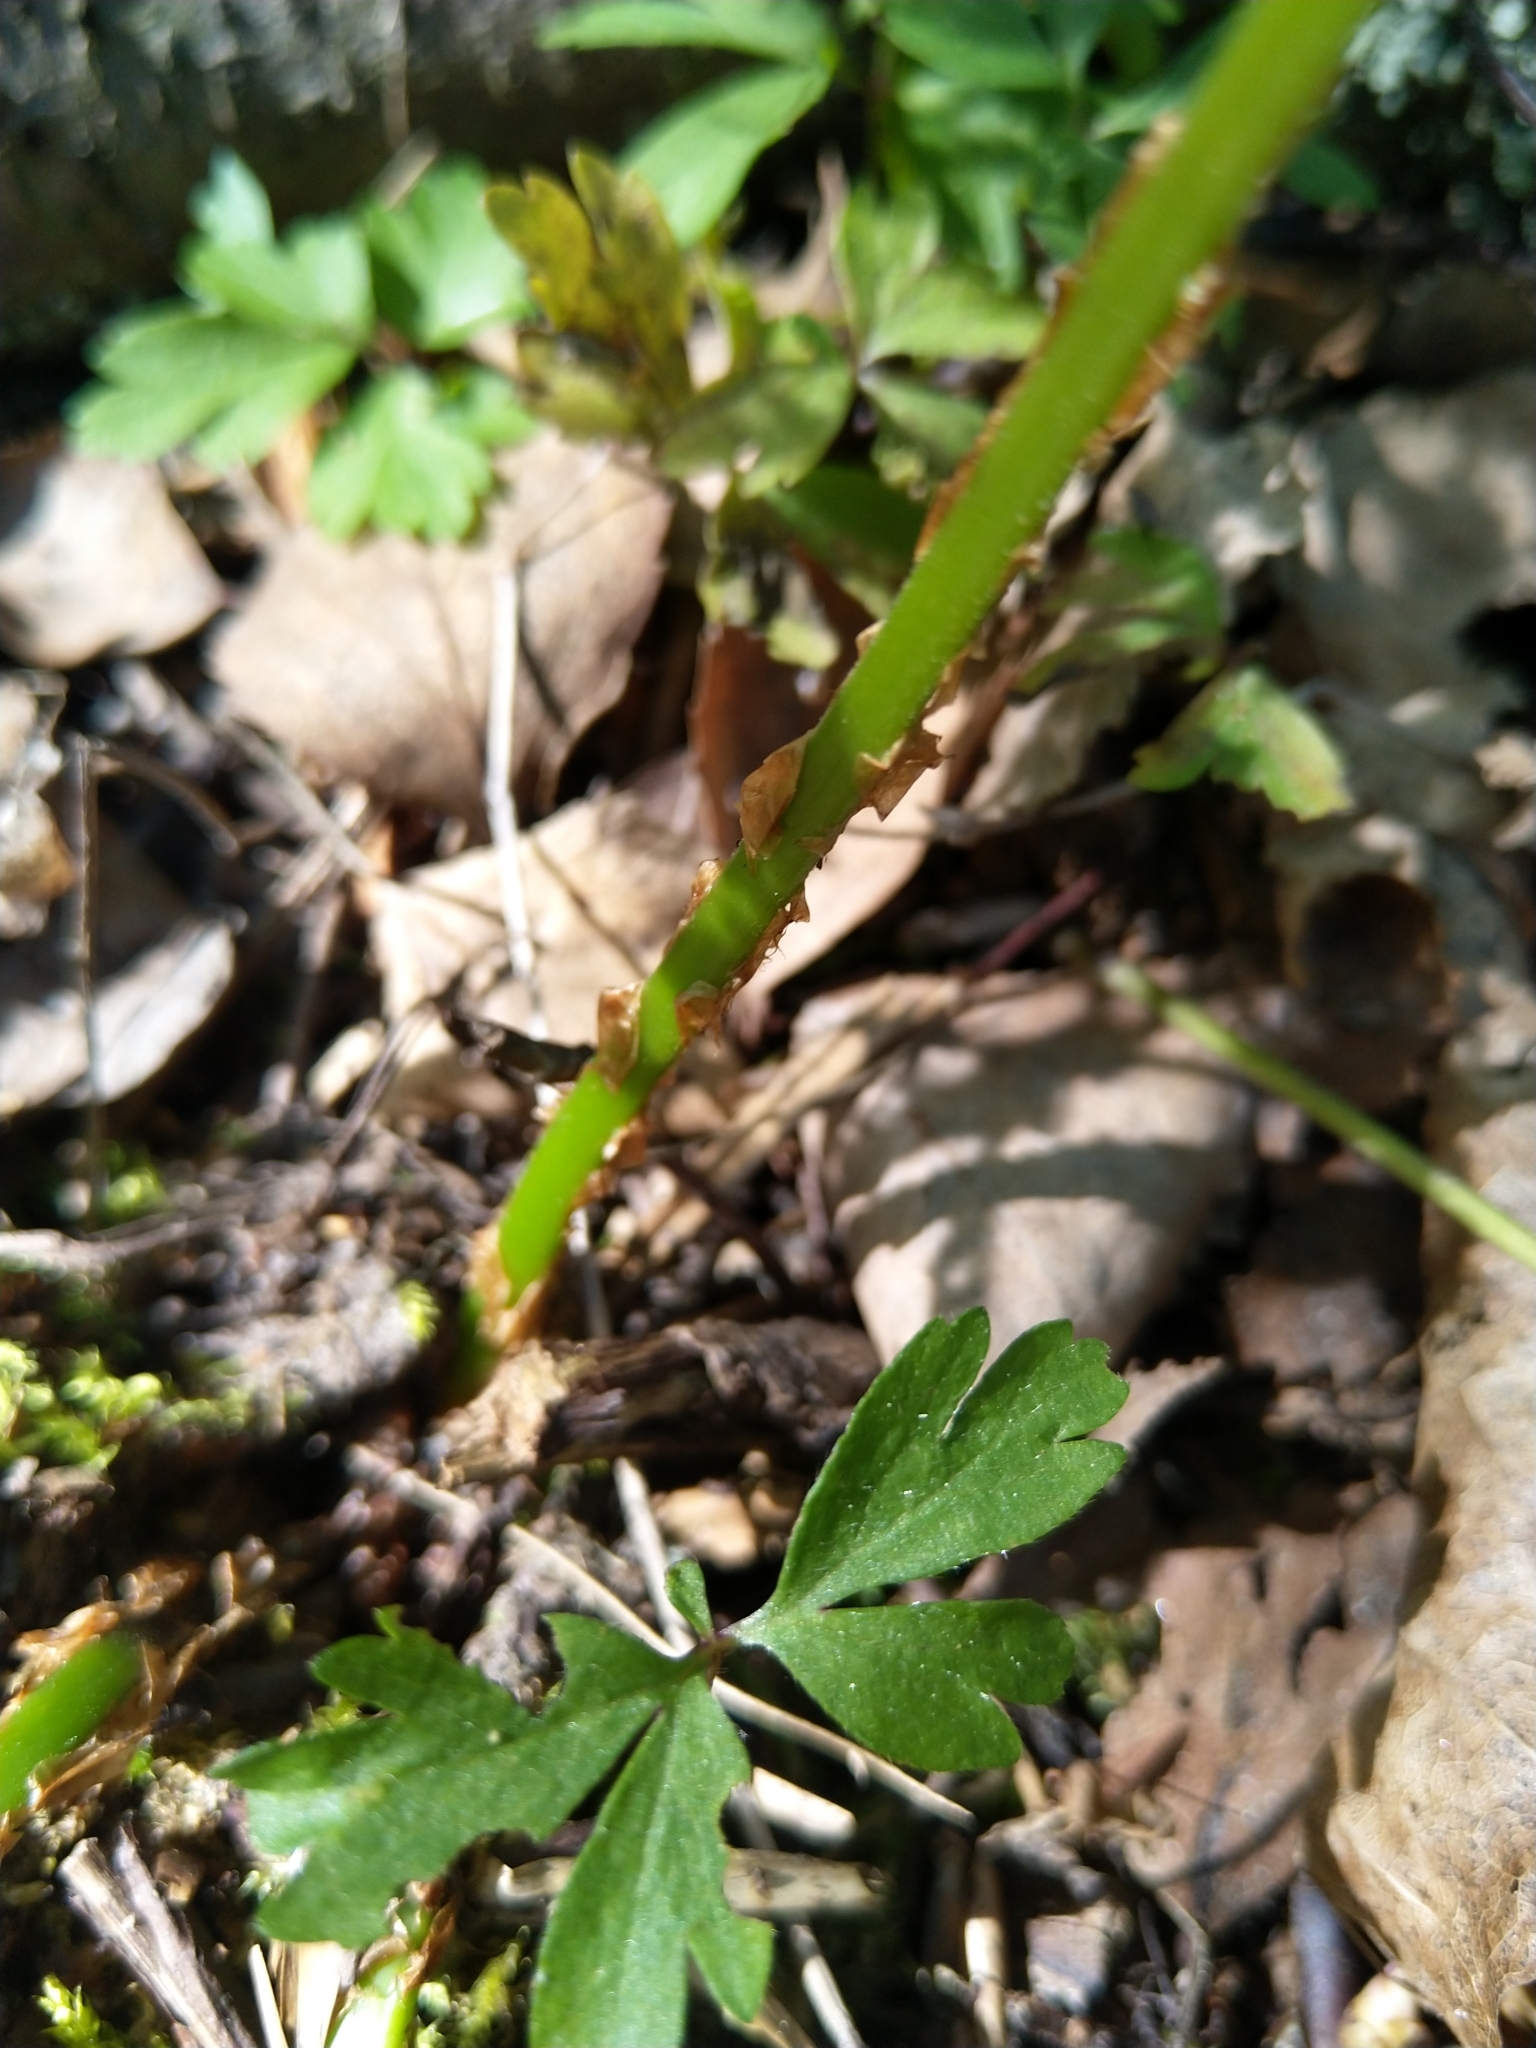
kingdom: Plantae
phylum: Tracheophyta
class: Polypodiopsida
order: Polypodiales
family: Dryopteridaceae
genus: Dryopteris
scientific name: Dryopteris carthusiana
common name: Narrow buckler-fern
